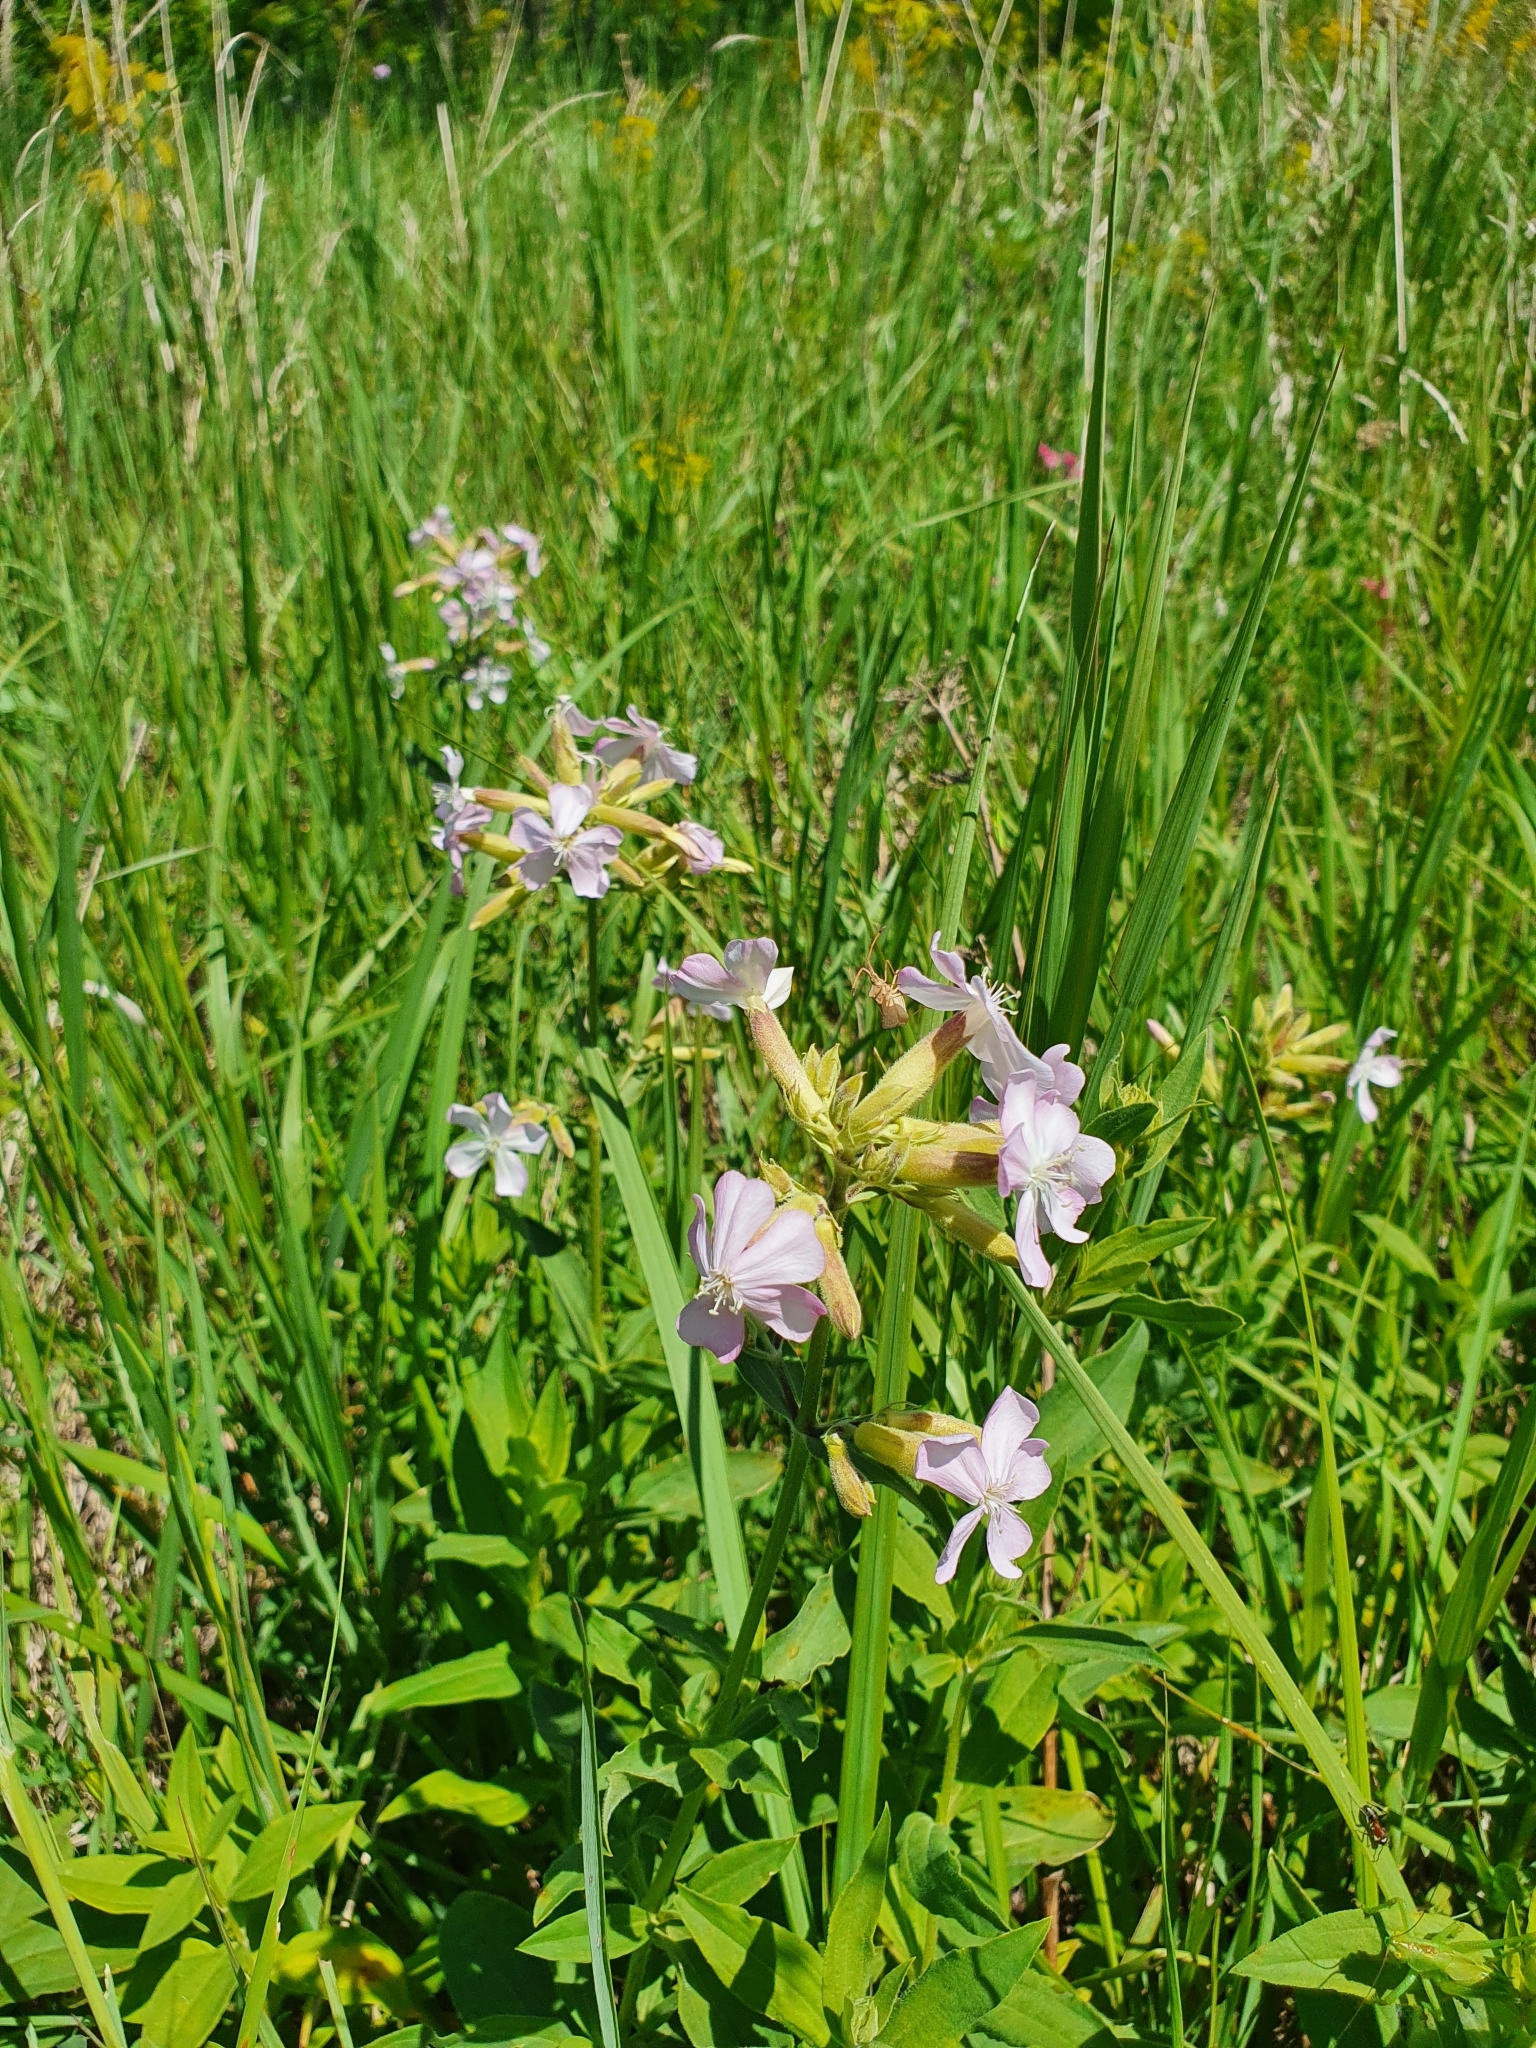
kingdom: Plantae
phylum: Tracheophyta
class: Magnoliopsida
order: Caryophyllales
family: Caryophyllaceae
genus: Saponaria
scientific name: Saponaria officinalis
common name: Soapwort
